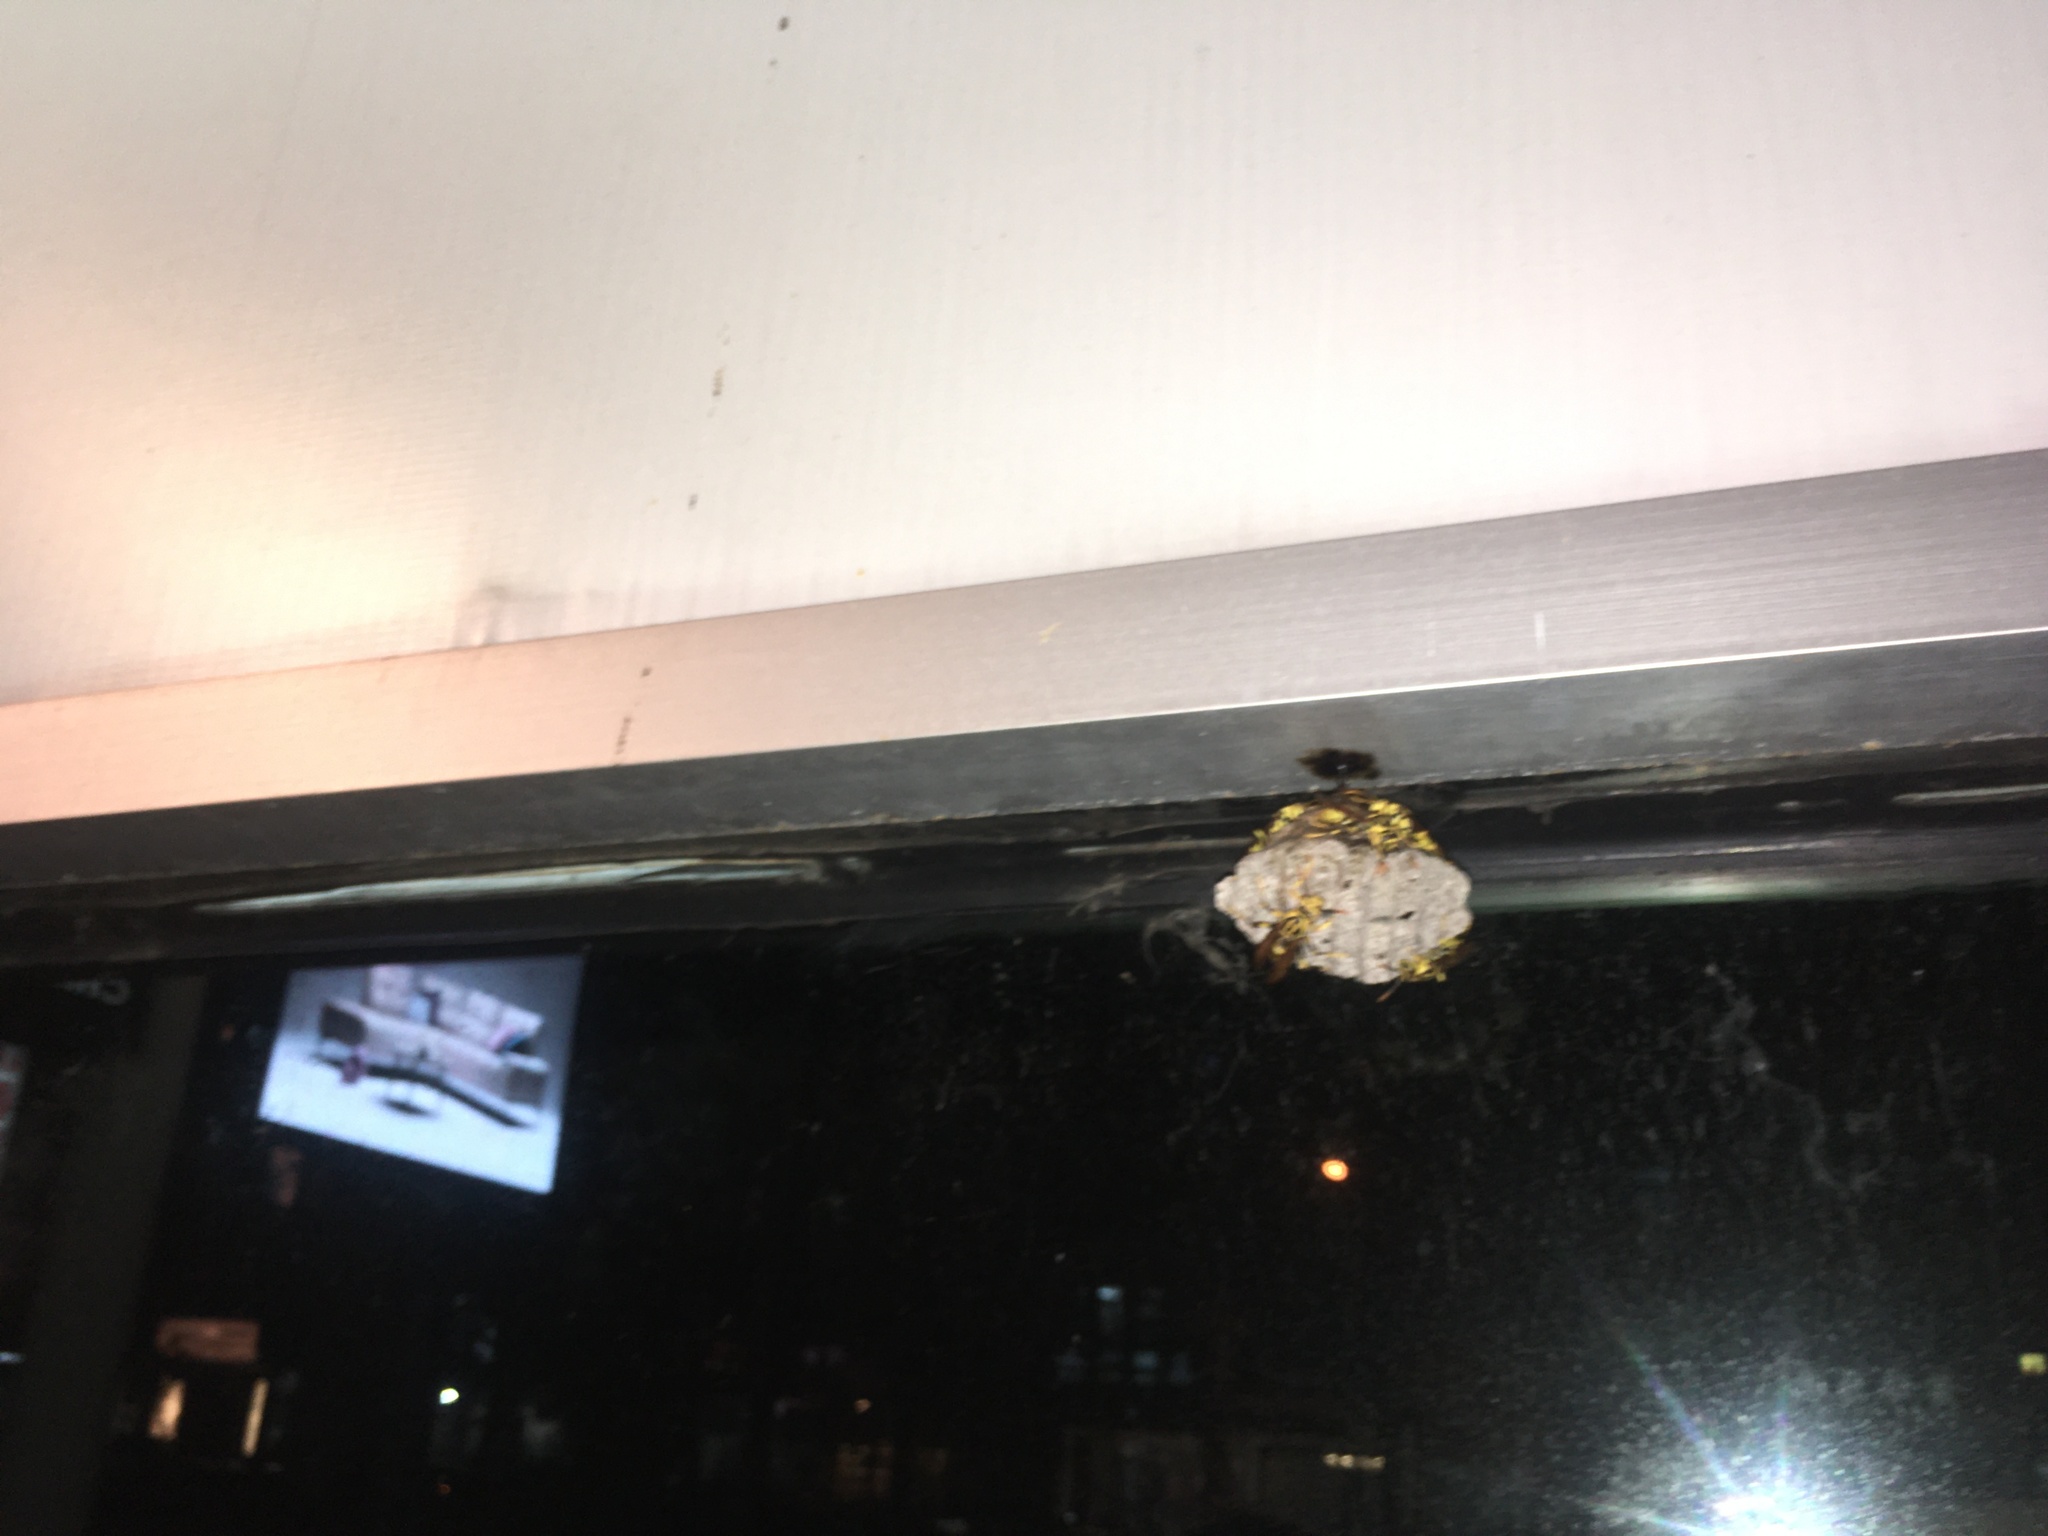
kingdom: Animalia
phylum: Arthropoda
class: Insecta
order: Hymenoptera
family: Eumenidae
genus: Polistes
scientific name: Polistes rothneyi
